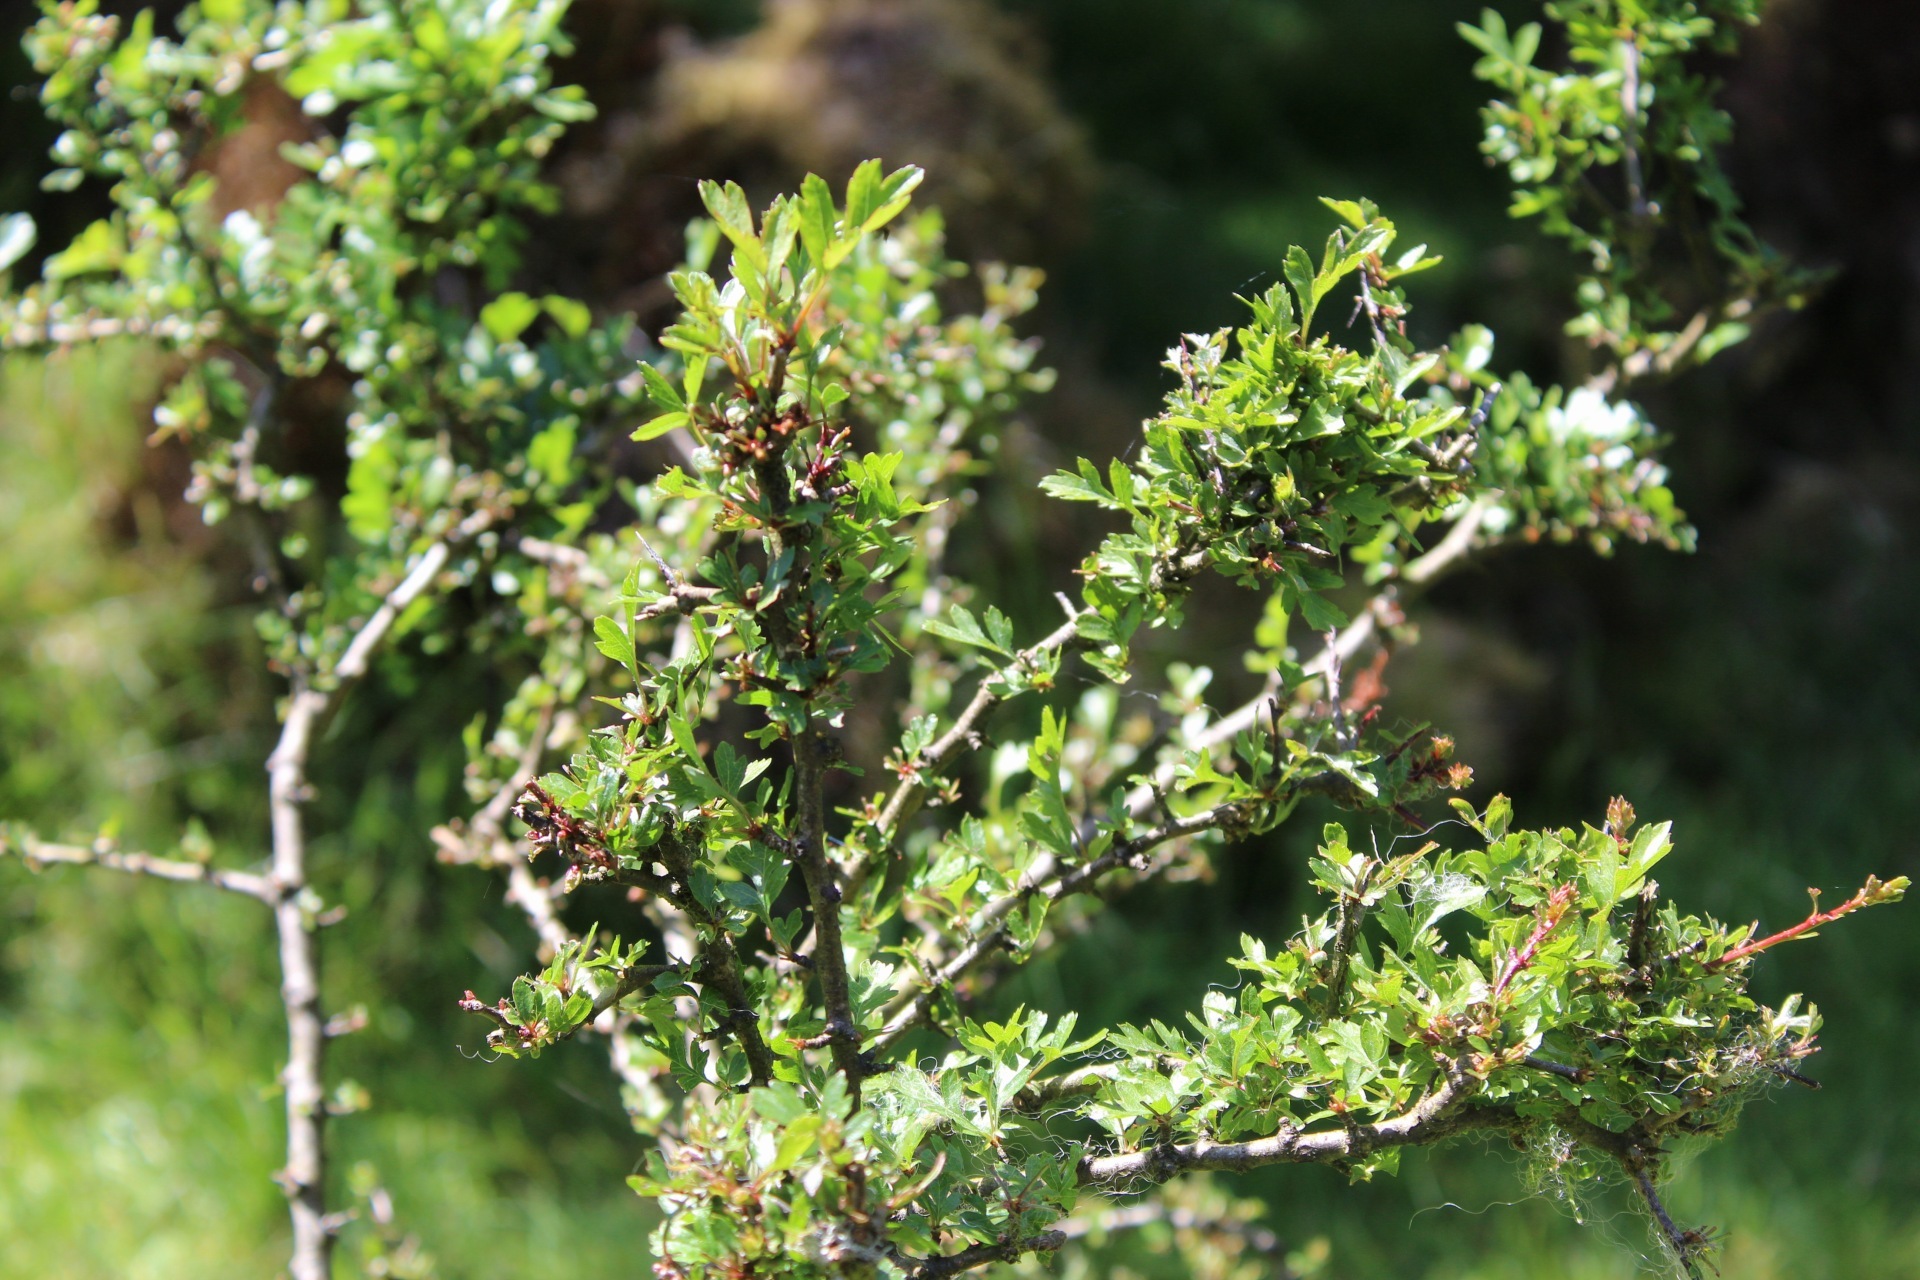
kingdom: Plantae
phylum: Tracheophyta
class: Magnoliopsida
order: Rosales
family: Rosaceae
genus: Crataegus
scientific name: Crataegus monogyna
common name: Hawthorn
